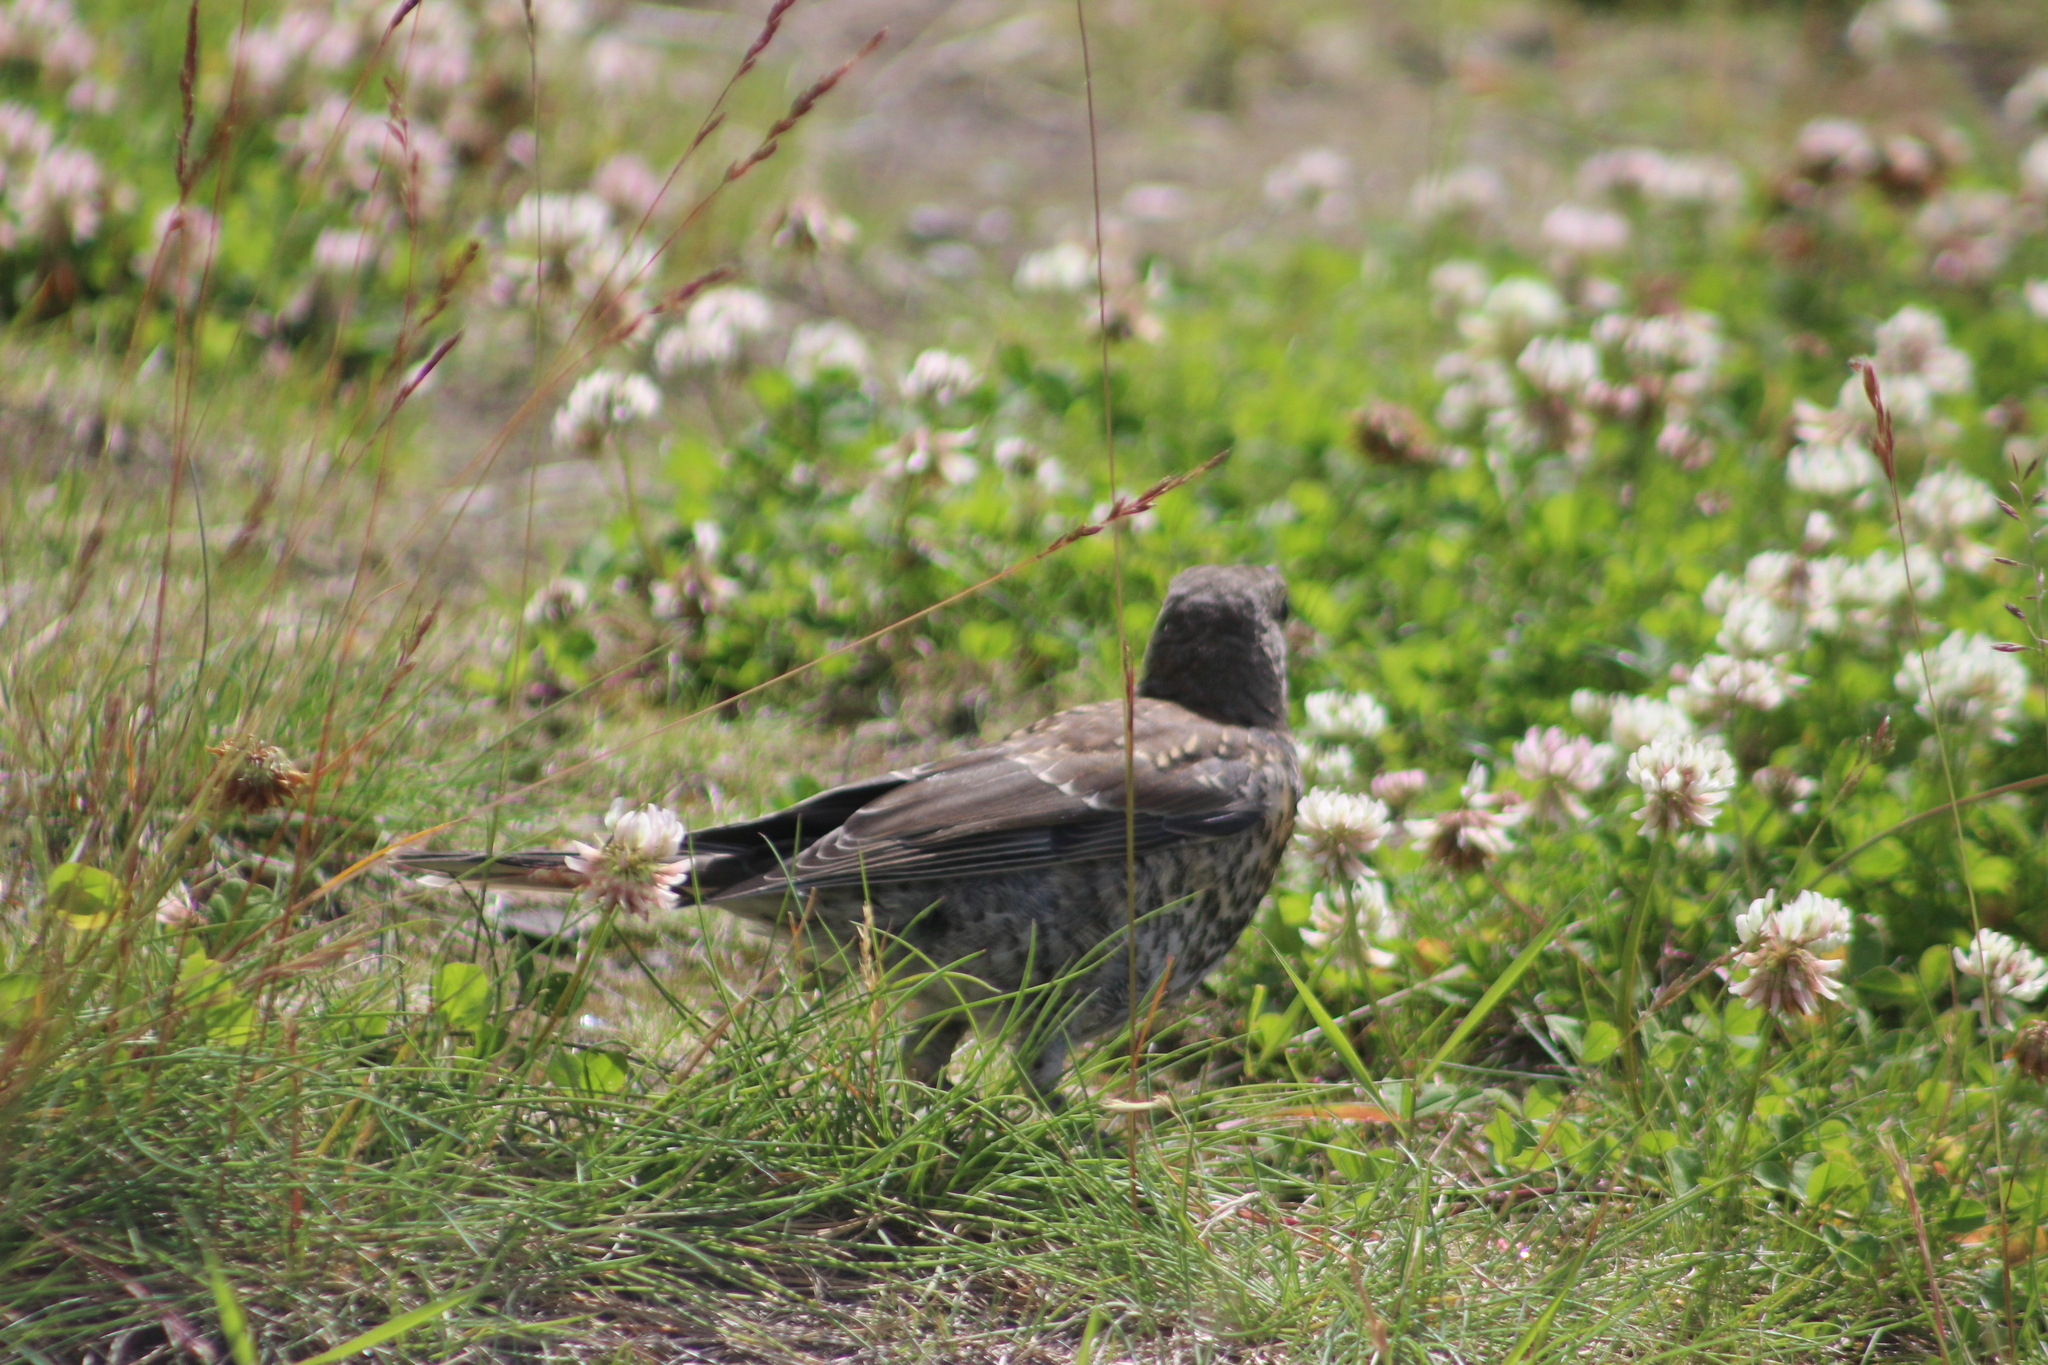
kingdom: Animalia
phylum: Chordata
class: Aves
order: Passeriformes
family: Turdidae
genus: Turdus
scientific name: Turdus pilaris
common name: Fieldfare
